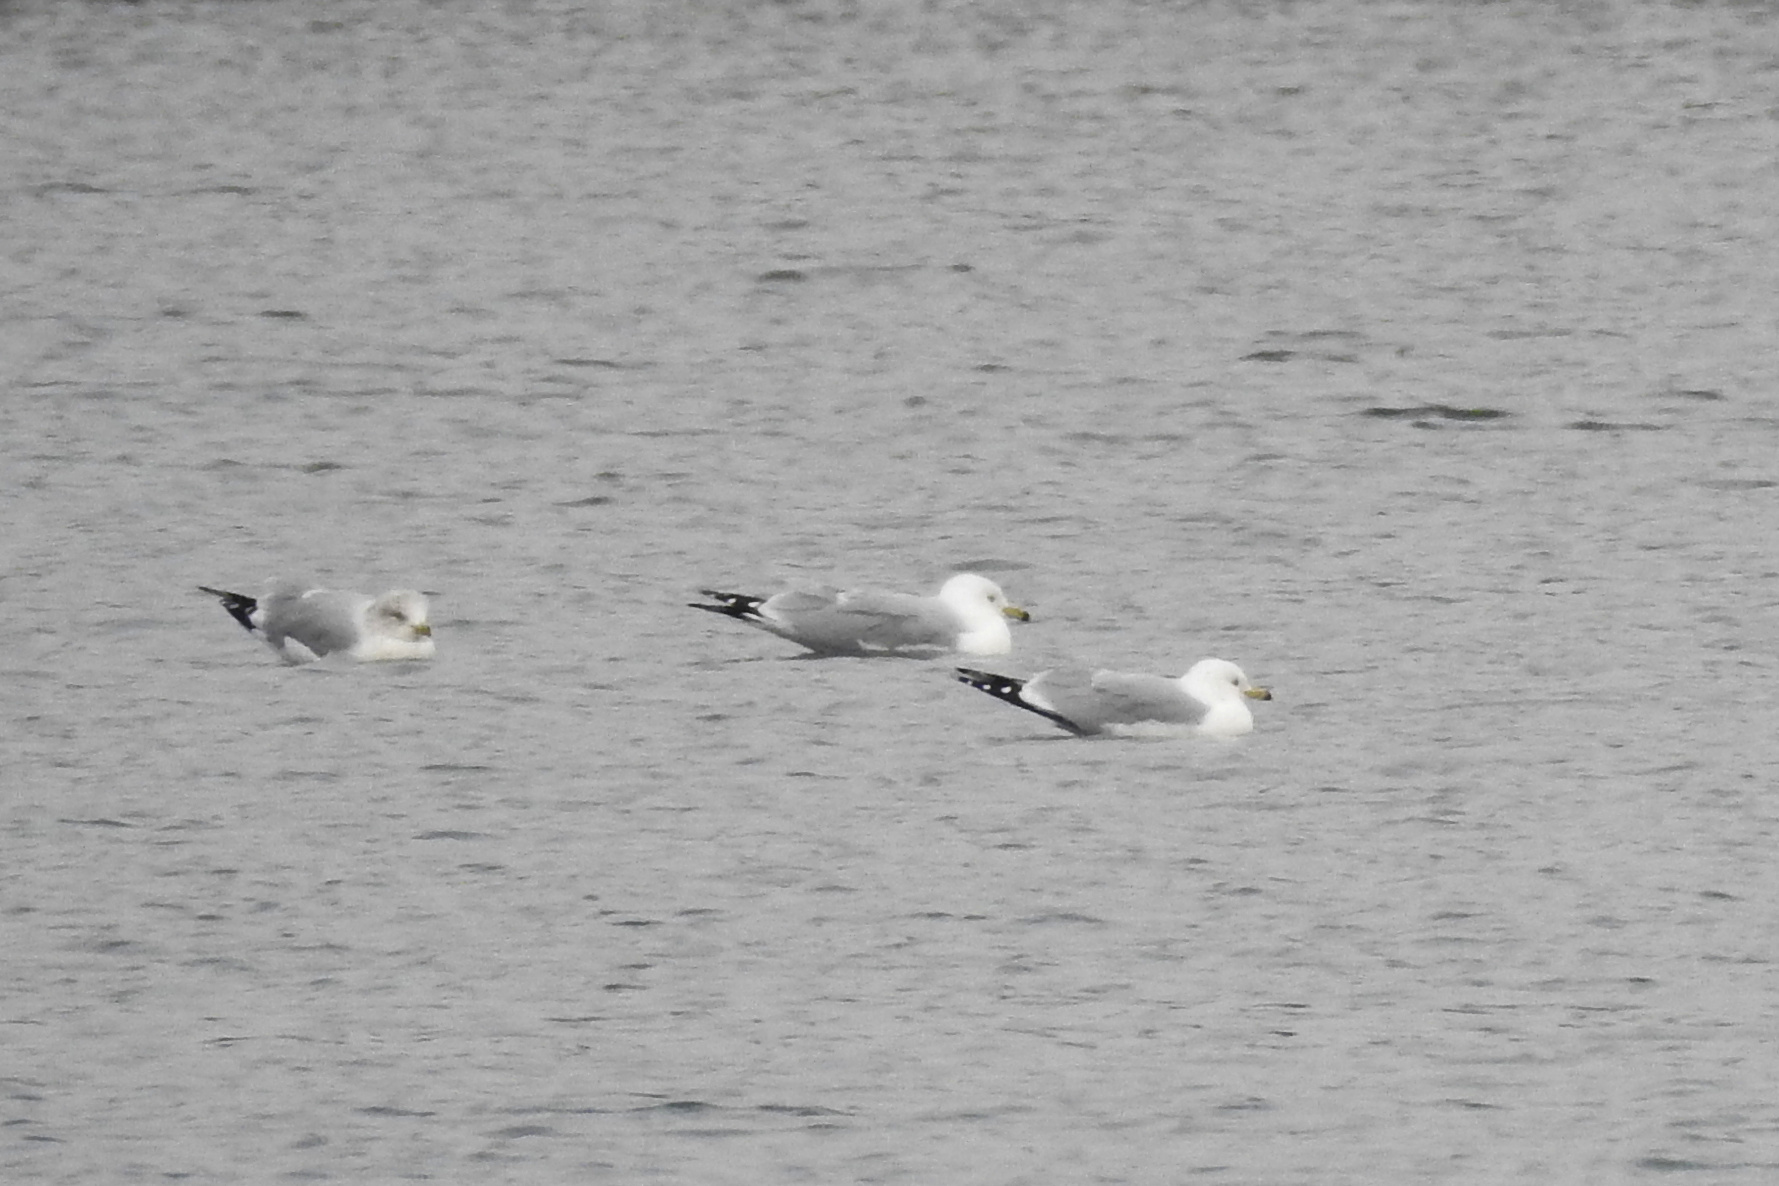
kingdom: Animalia
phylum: Chordata
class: Aves
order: Charadriiformes
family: Laridae
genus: Larus
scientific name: Larus delawarensis
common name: Ring-billed gull
